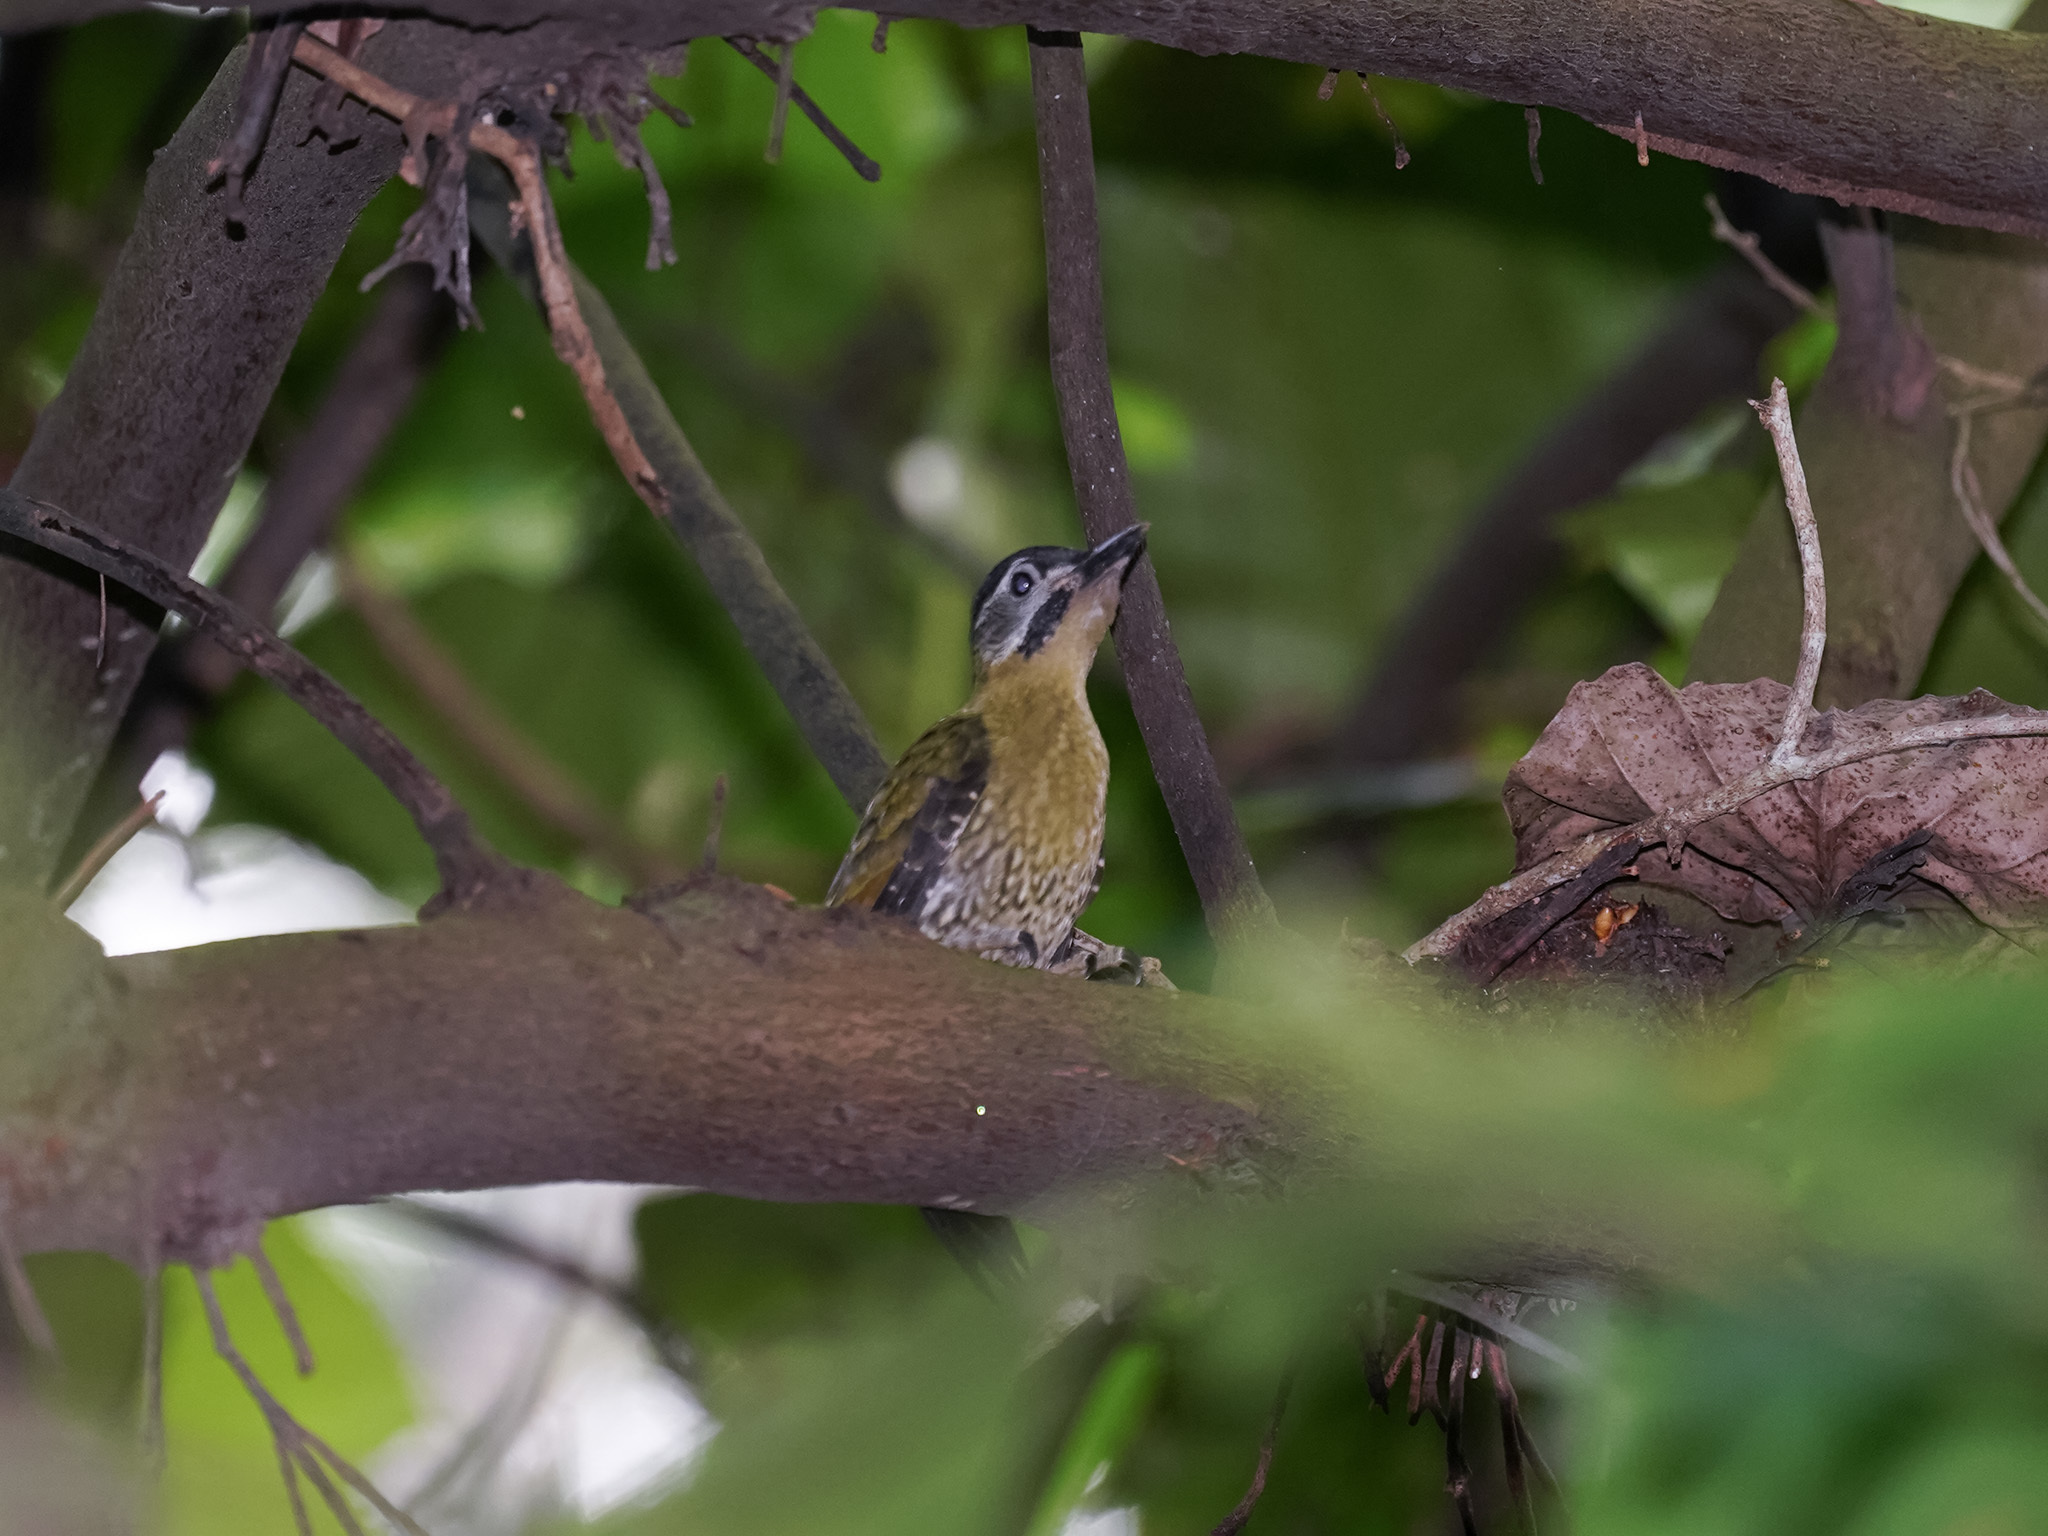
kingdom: Animalia
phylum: Chordata
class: Aves
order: Piciformes
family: Picidae
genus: Picus
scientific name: Picus vittatus
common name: Laced woodpecker
